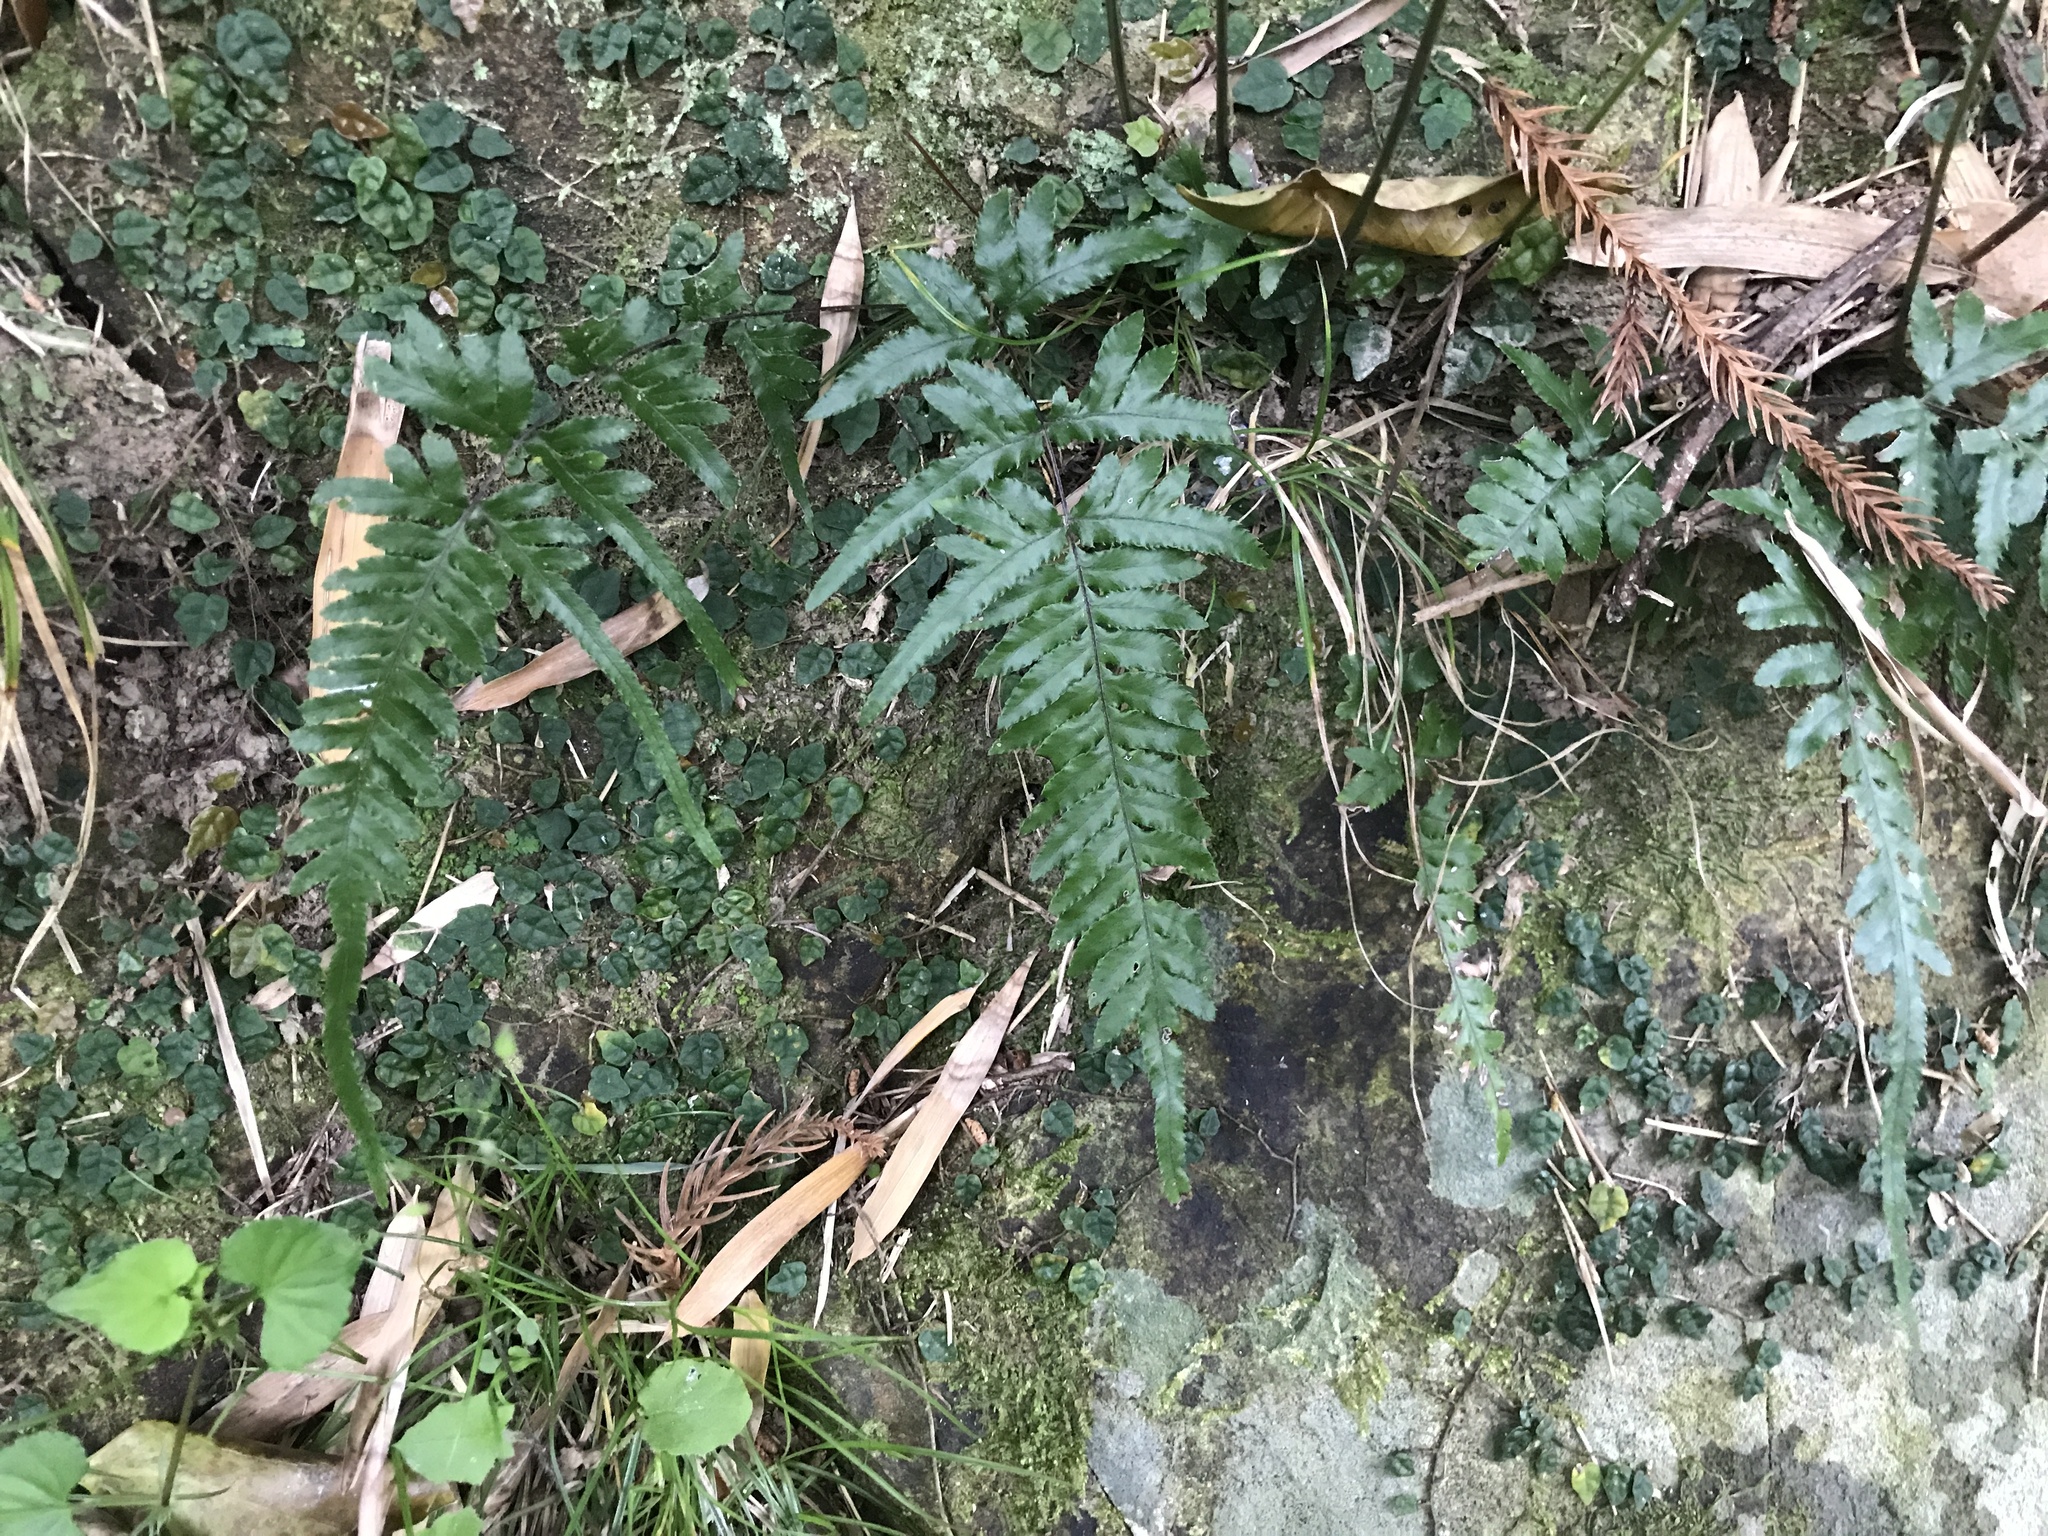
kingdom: Plantae
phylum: Tracheophyta
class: Polypodiopsida
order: Polypodiales
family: Pteridaceae
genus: Pteris
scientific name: Pteris dispar
